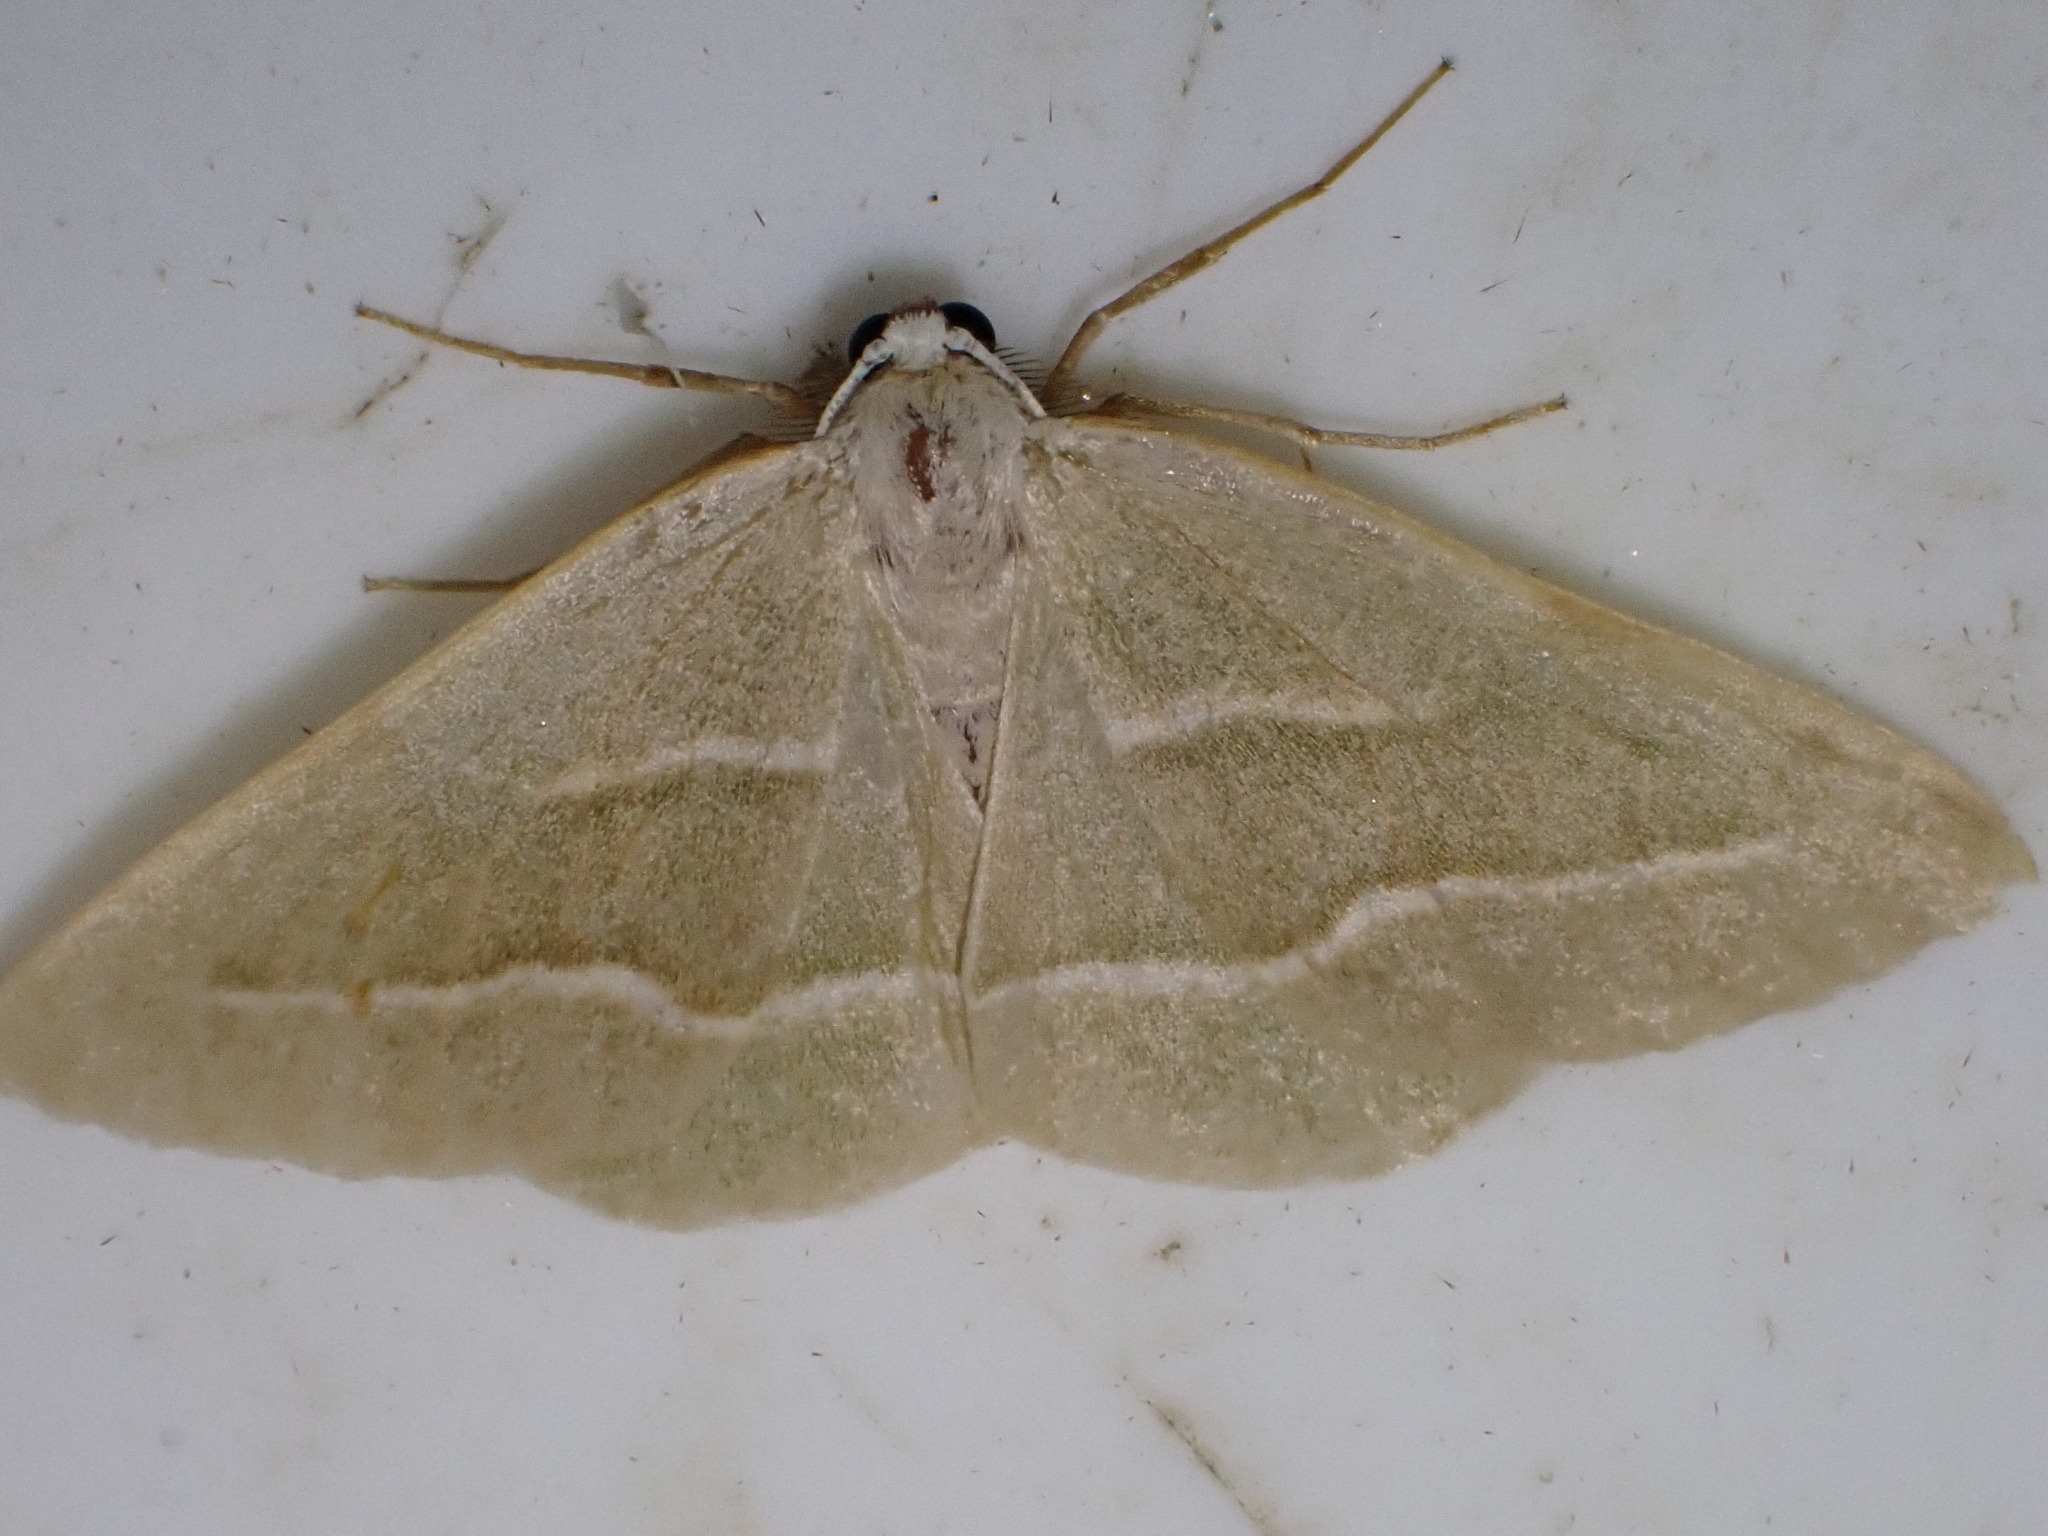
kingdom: Animalia
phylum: Arthropoda
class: Insecta
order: Lepidoptera
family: Geometridae
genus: Hylaea
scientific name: Hylaea fasciaria
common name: Barred red
